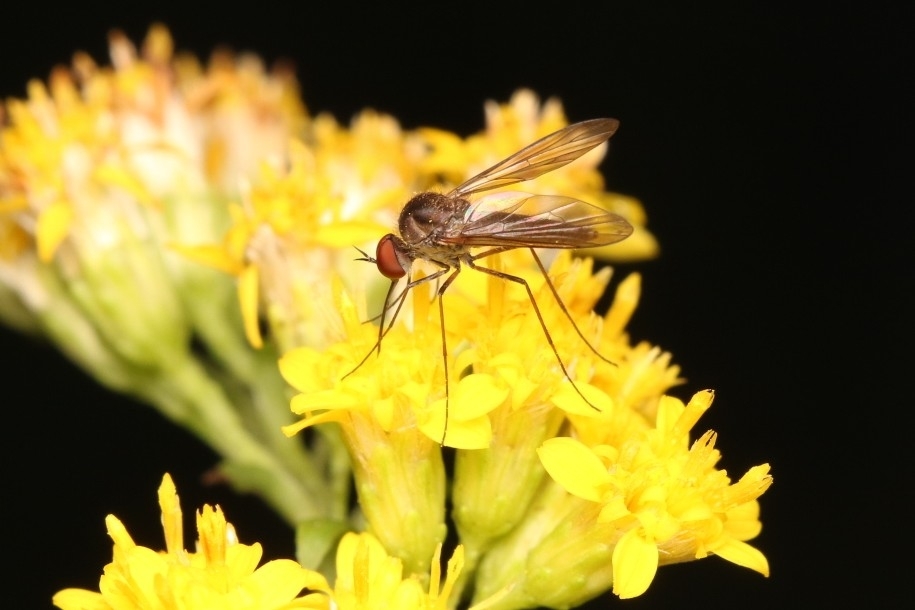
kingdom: Animalia
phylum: Arthropoda
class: Insecta
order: Diptera
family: Bombyliidae
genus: Geron
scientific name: Geron calvus
